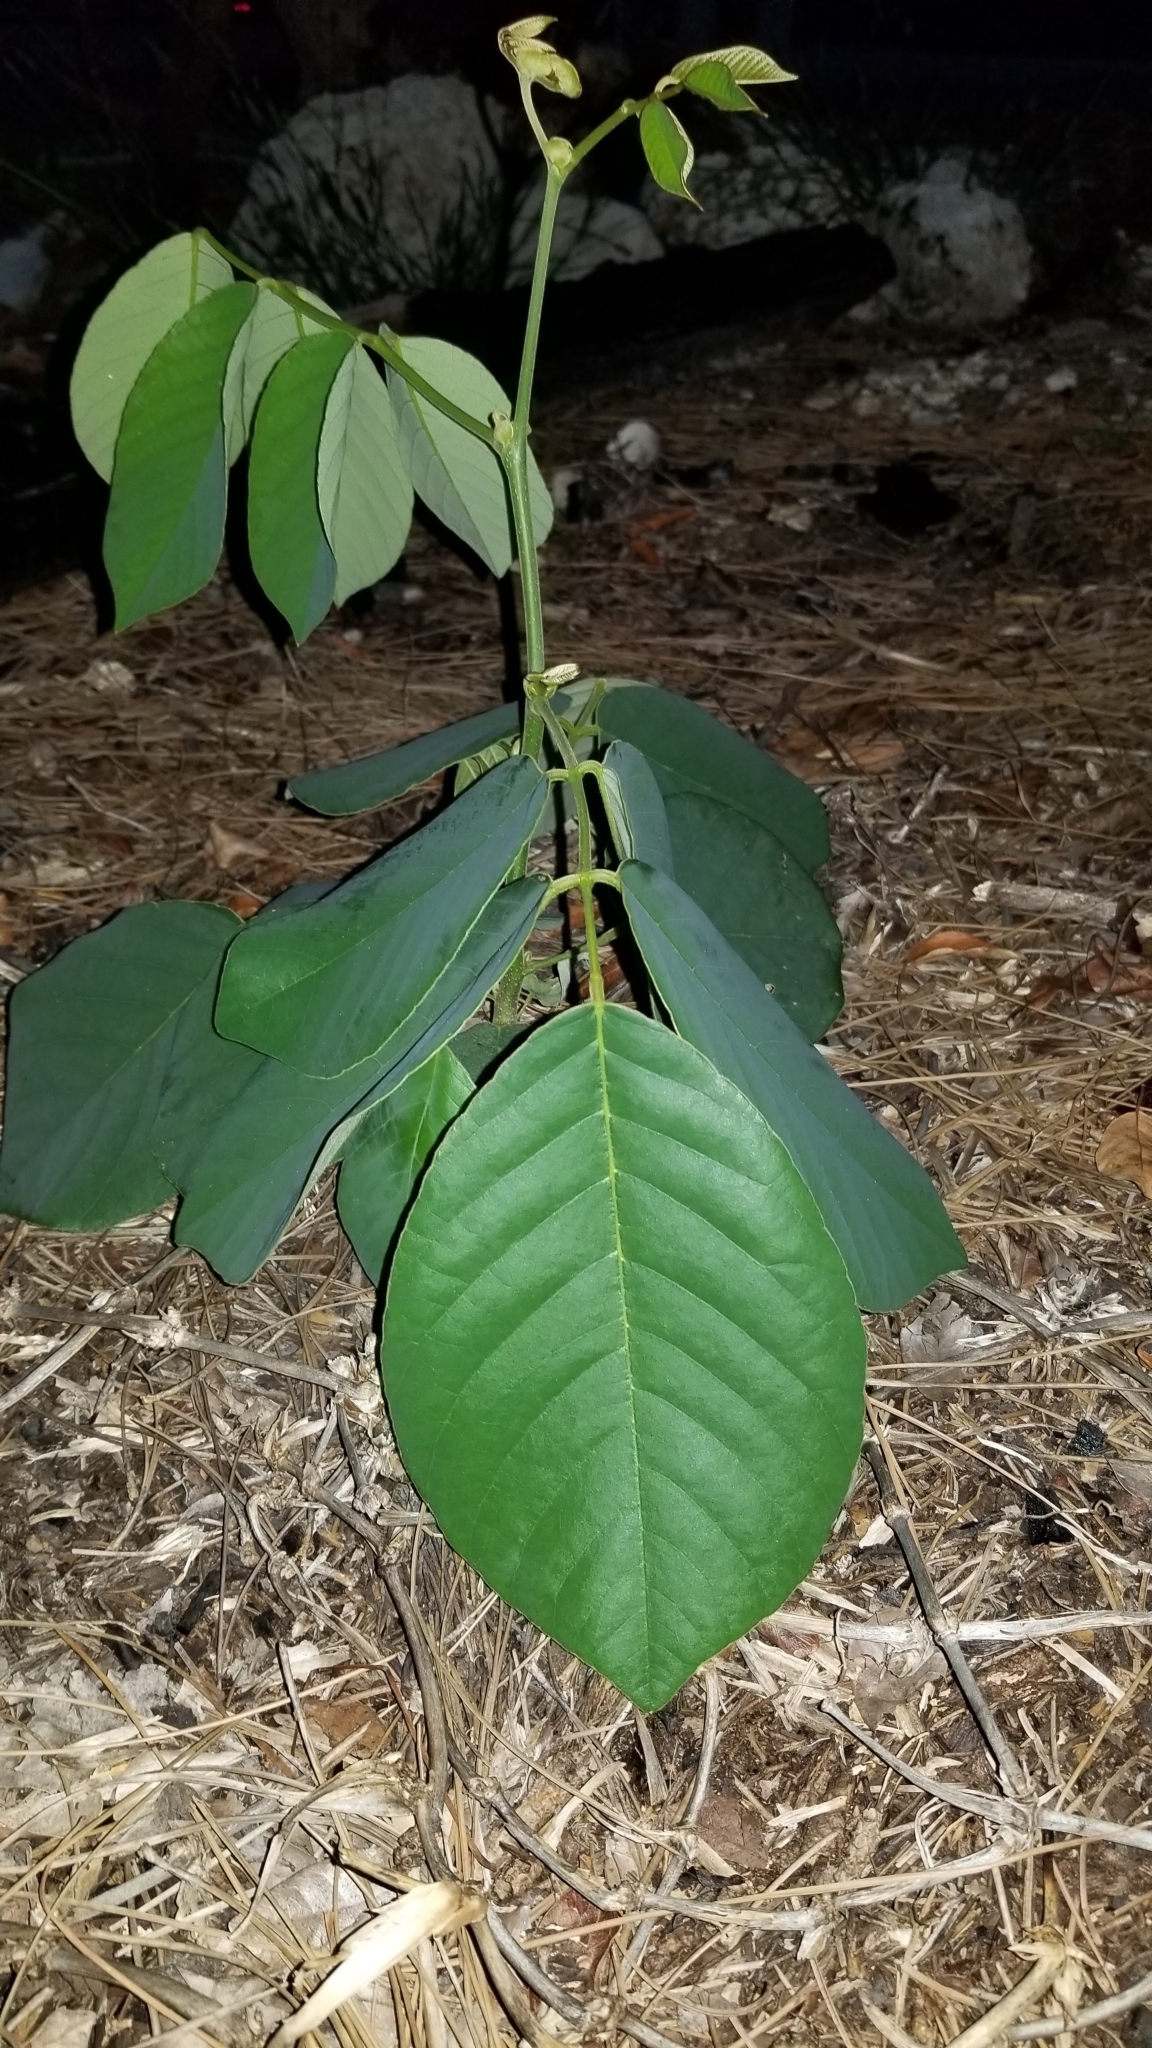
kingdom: Plantae
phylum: Tracheophyta
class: Magnoliopsida
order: Fabales
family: Fabaceae
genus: Piscidia
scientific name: Piscidia piscipula
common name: Florida fishpoison tree
